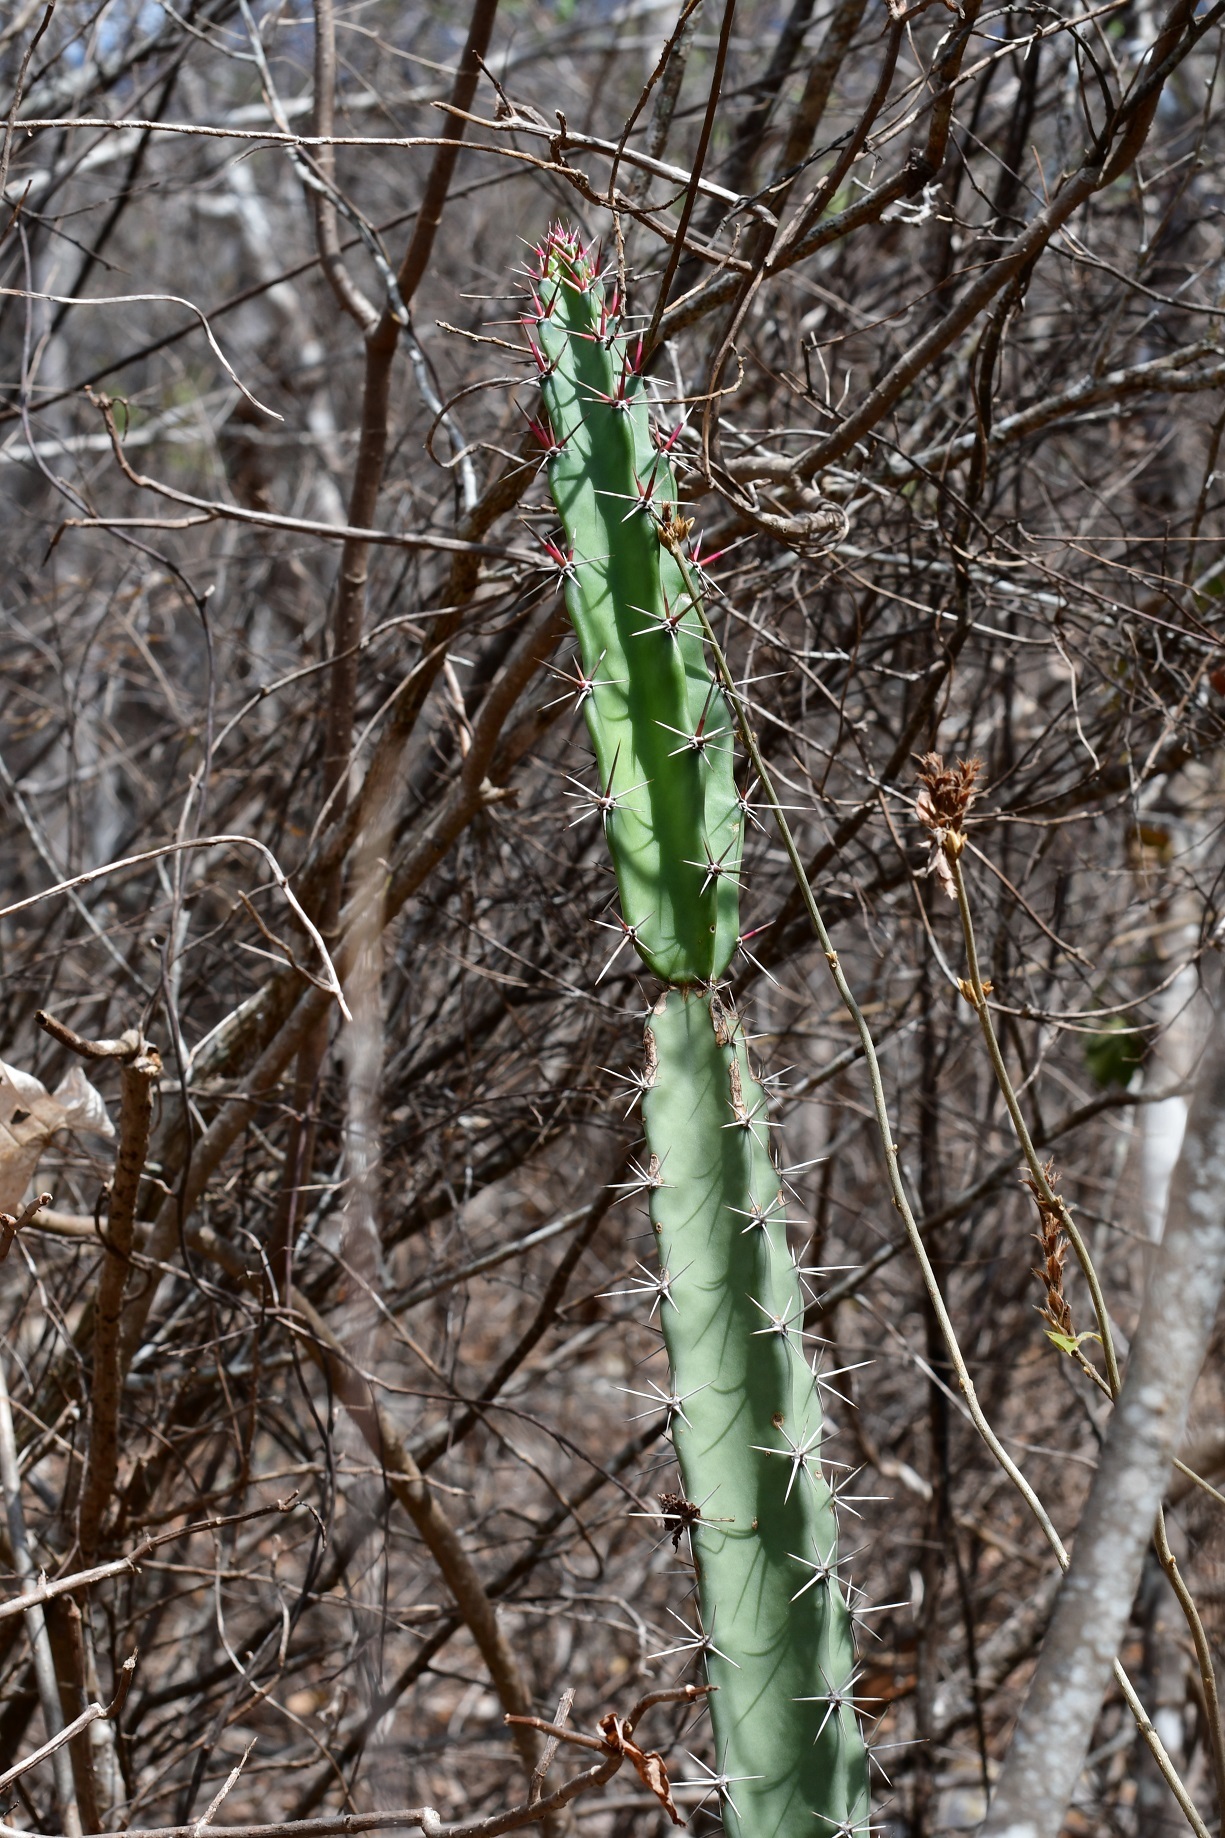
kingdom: Plantae
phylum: Tracheophyta
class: Magnoliopsida
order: Caryophyllales
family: Cactaceae
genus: Acanthocereus
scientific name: Acanthocereus chiapensis
